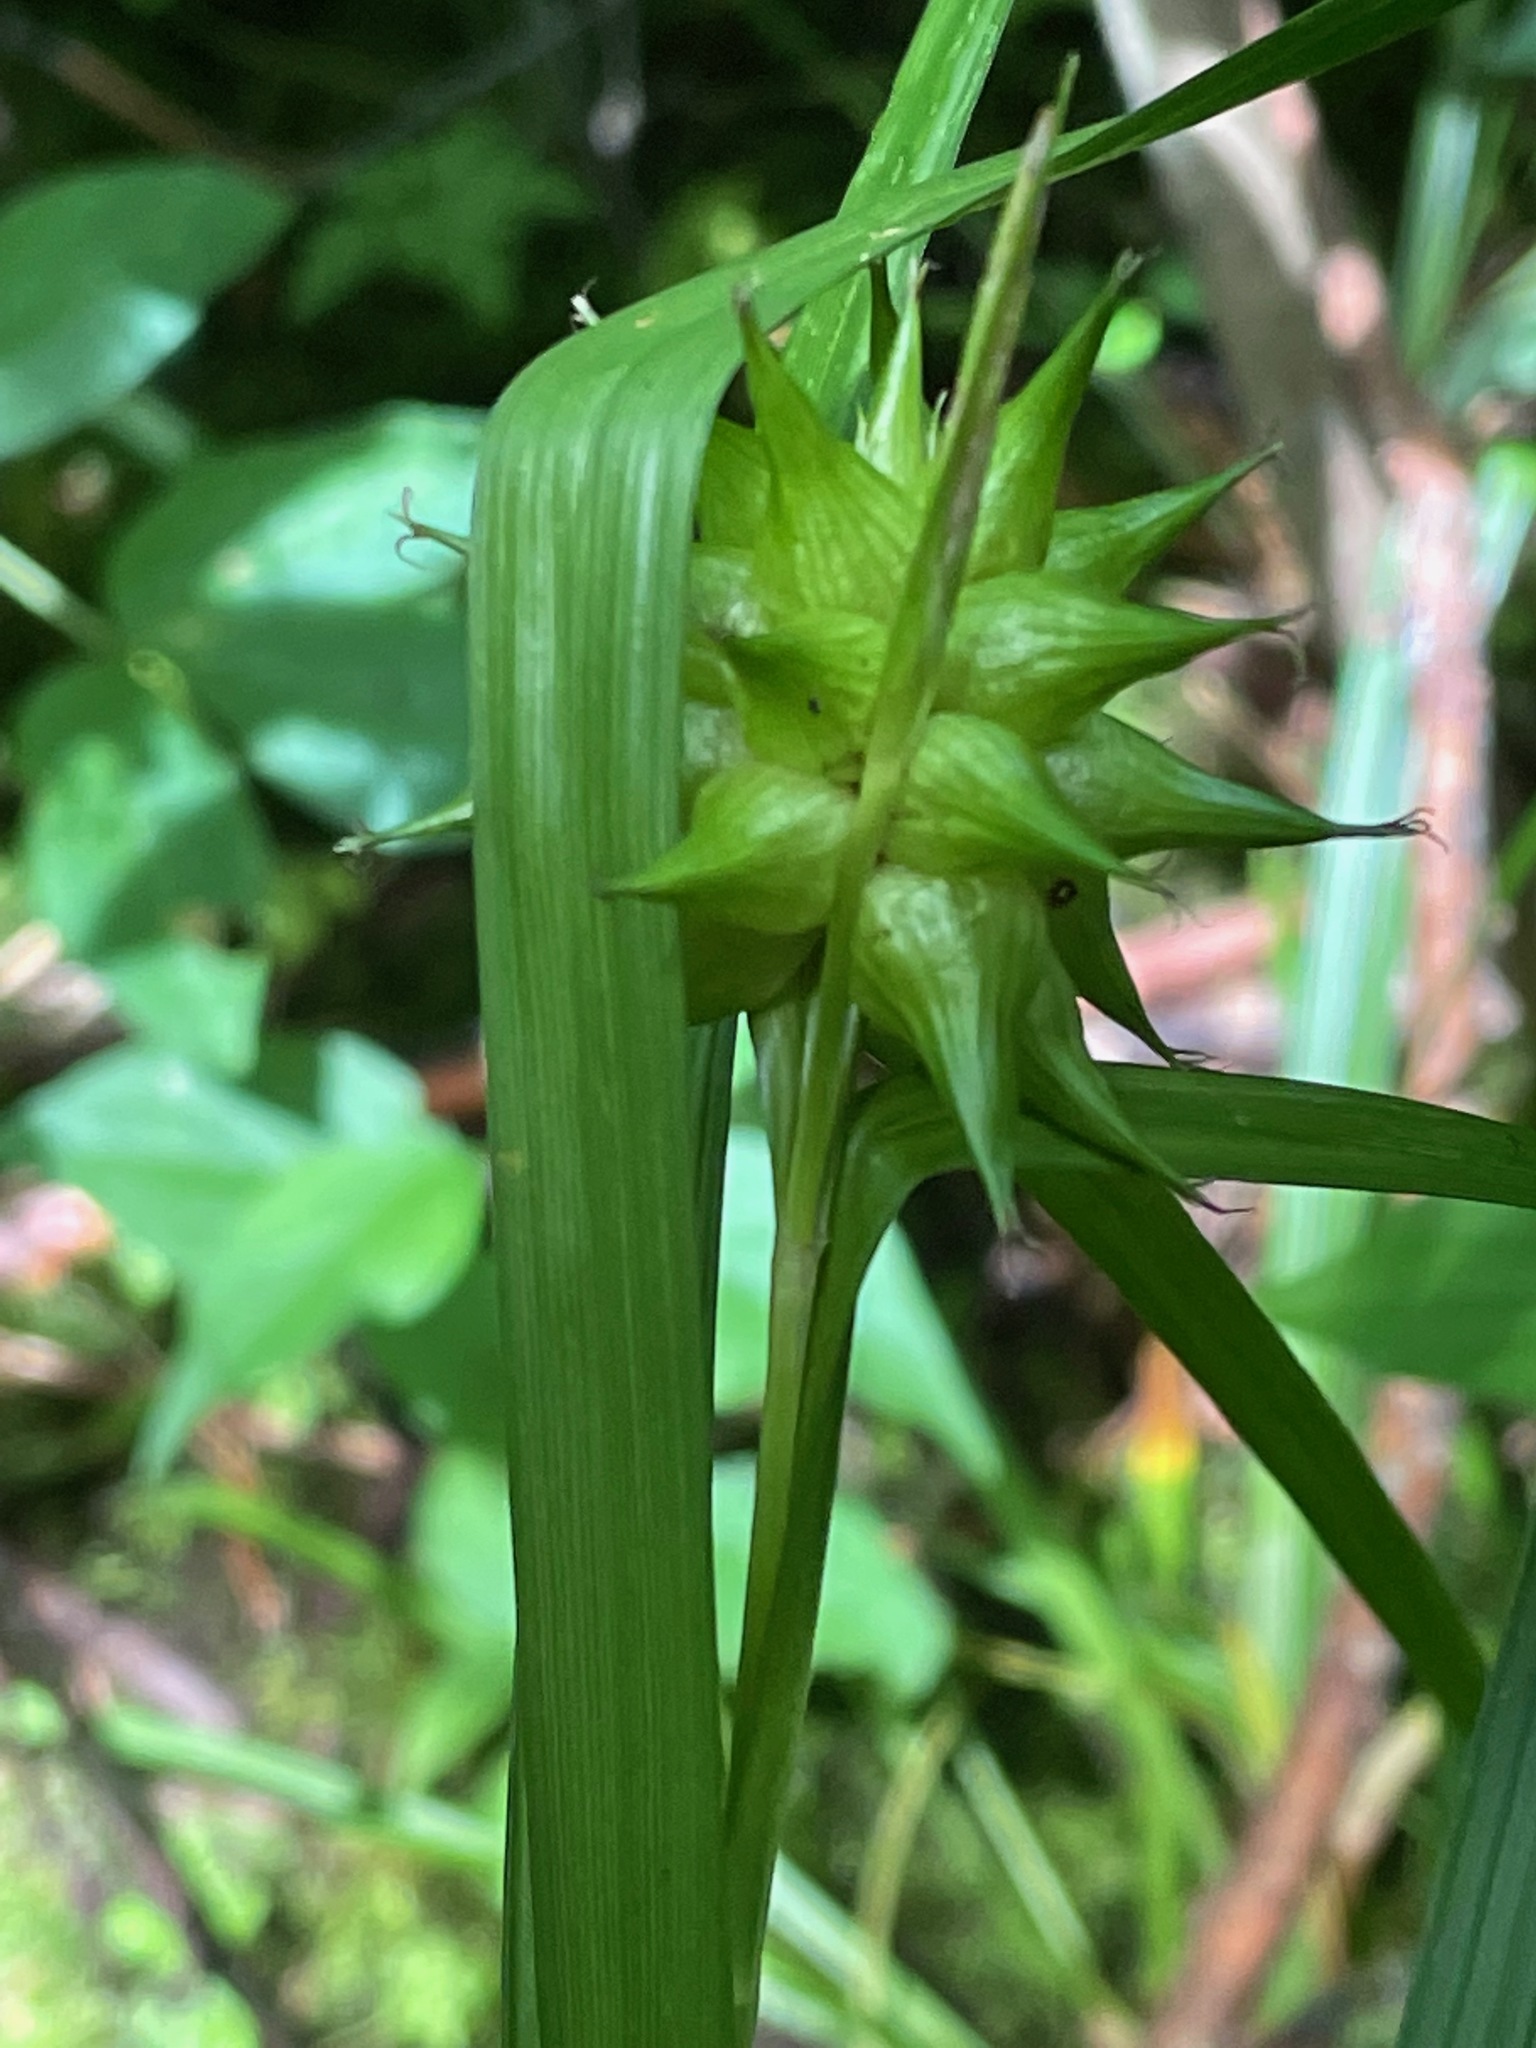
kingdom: Plantae
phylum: Tracheophyta
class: Liliopsida
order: Poales
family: Cyperaceae
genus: Carex
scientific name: Carex grayi
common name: Asa gray's sedge
